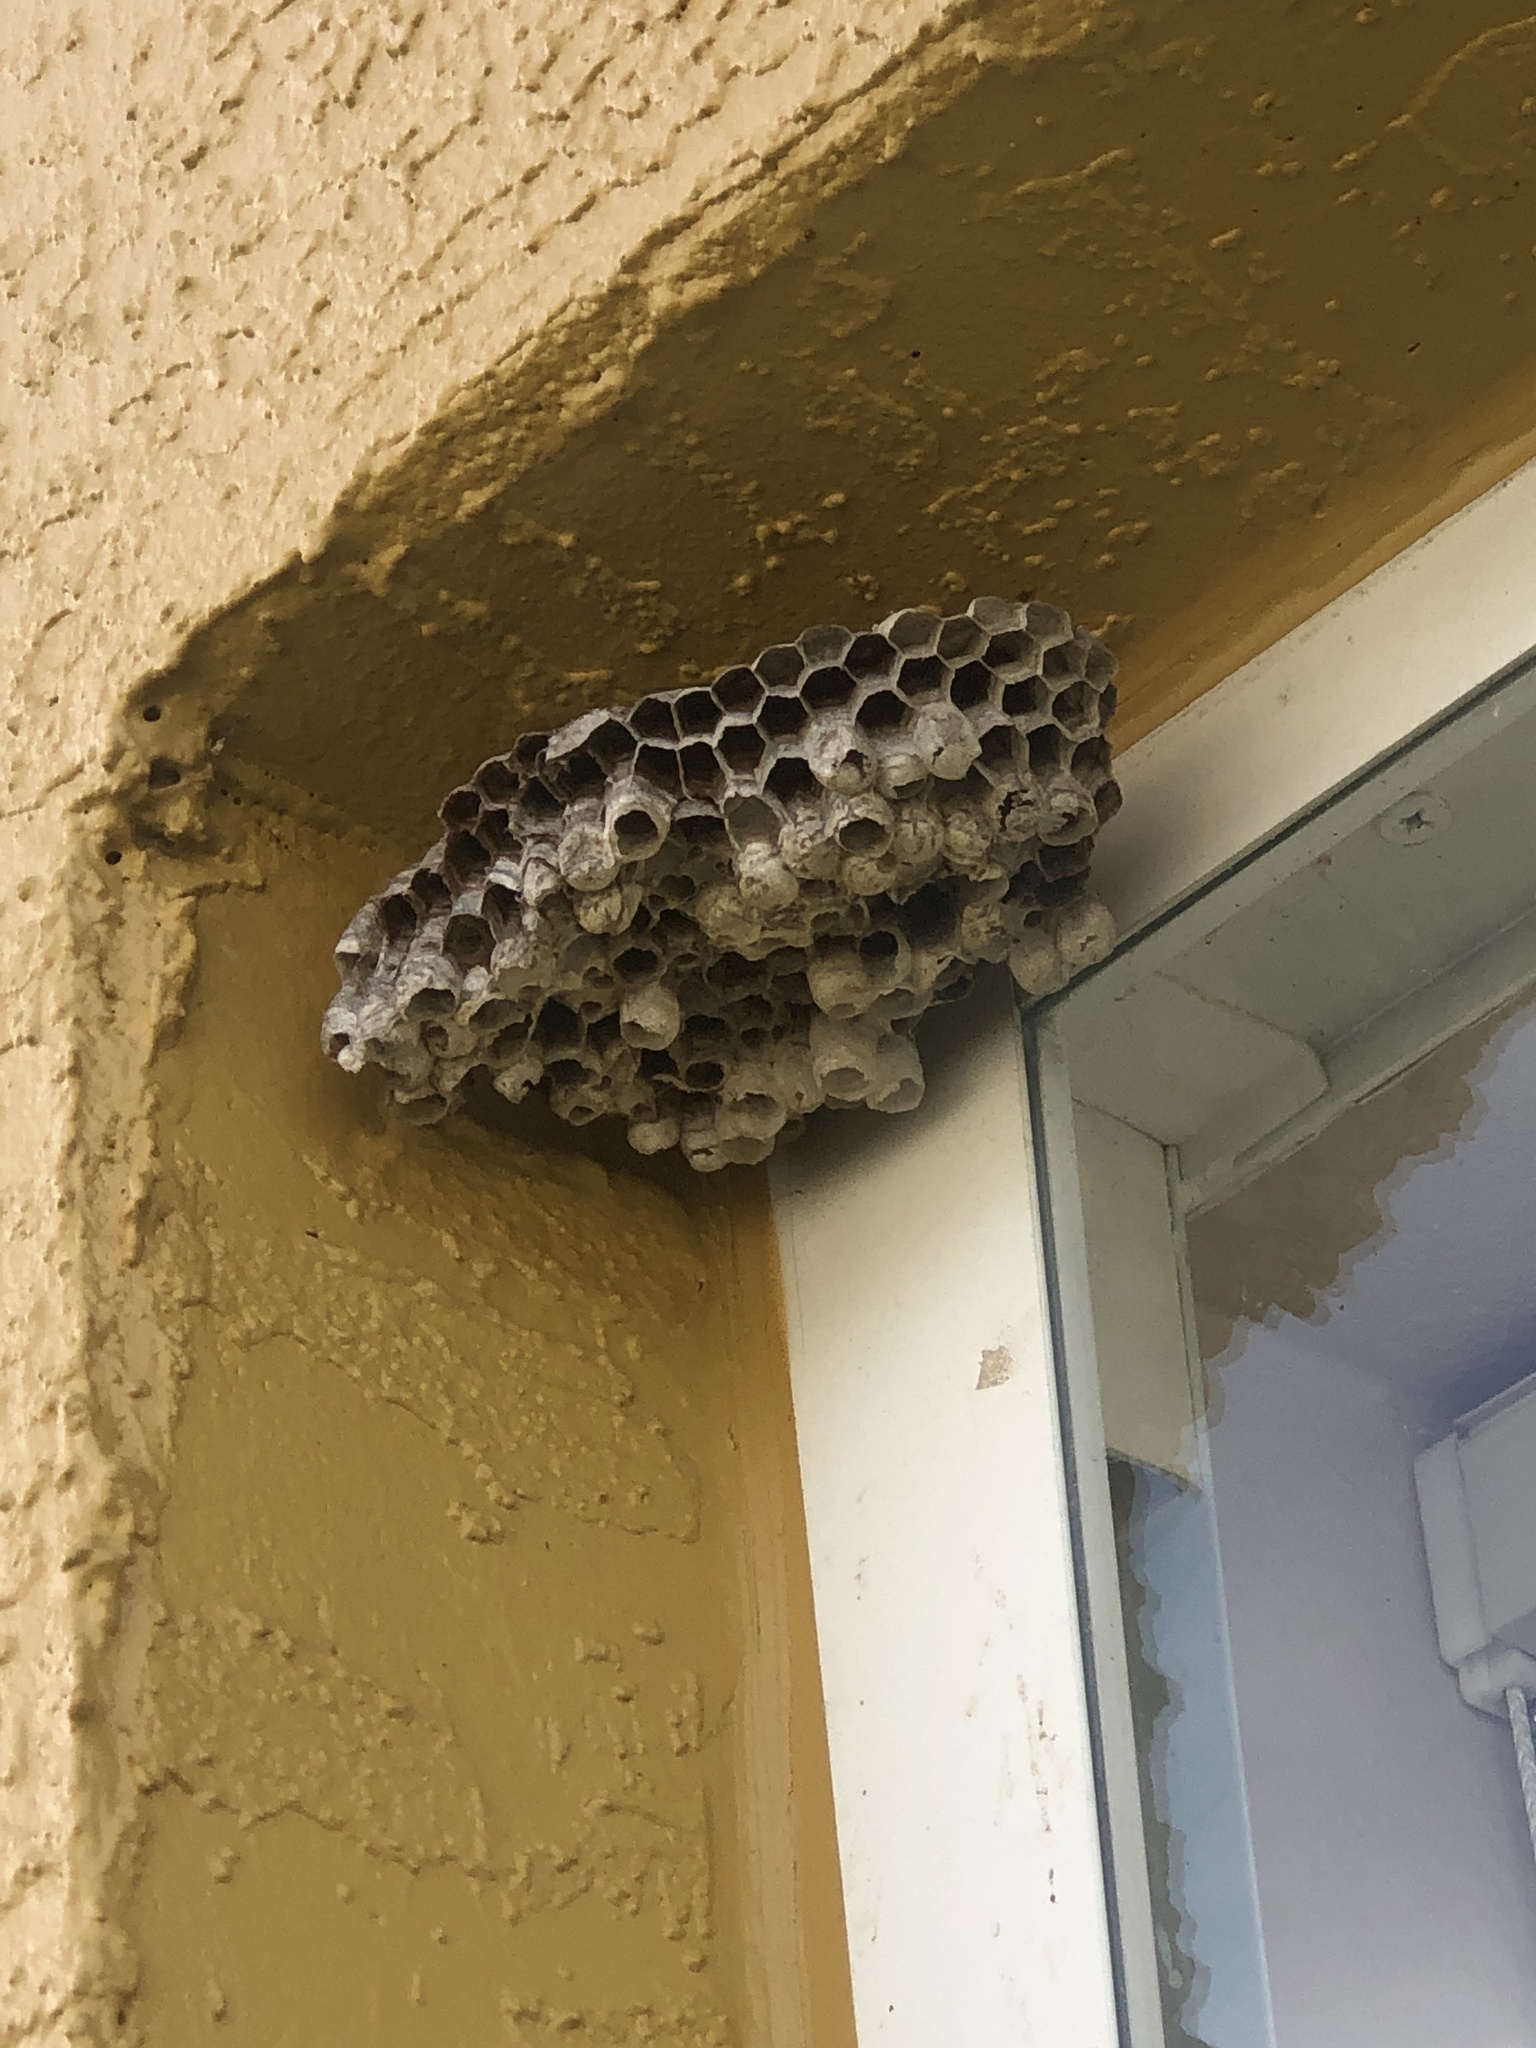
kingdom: Animalia
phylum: Arthropoda
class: Insecta
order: Hymenoptera
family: Vespidae
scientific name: Vespidae
